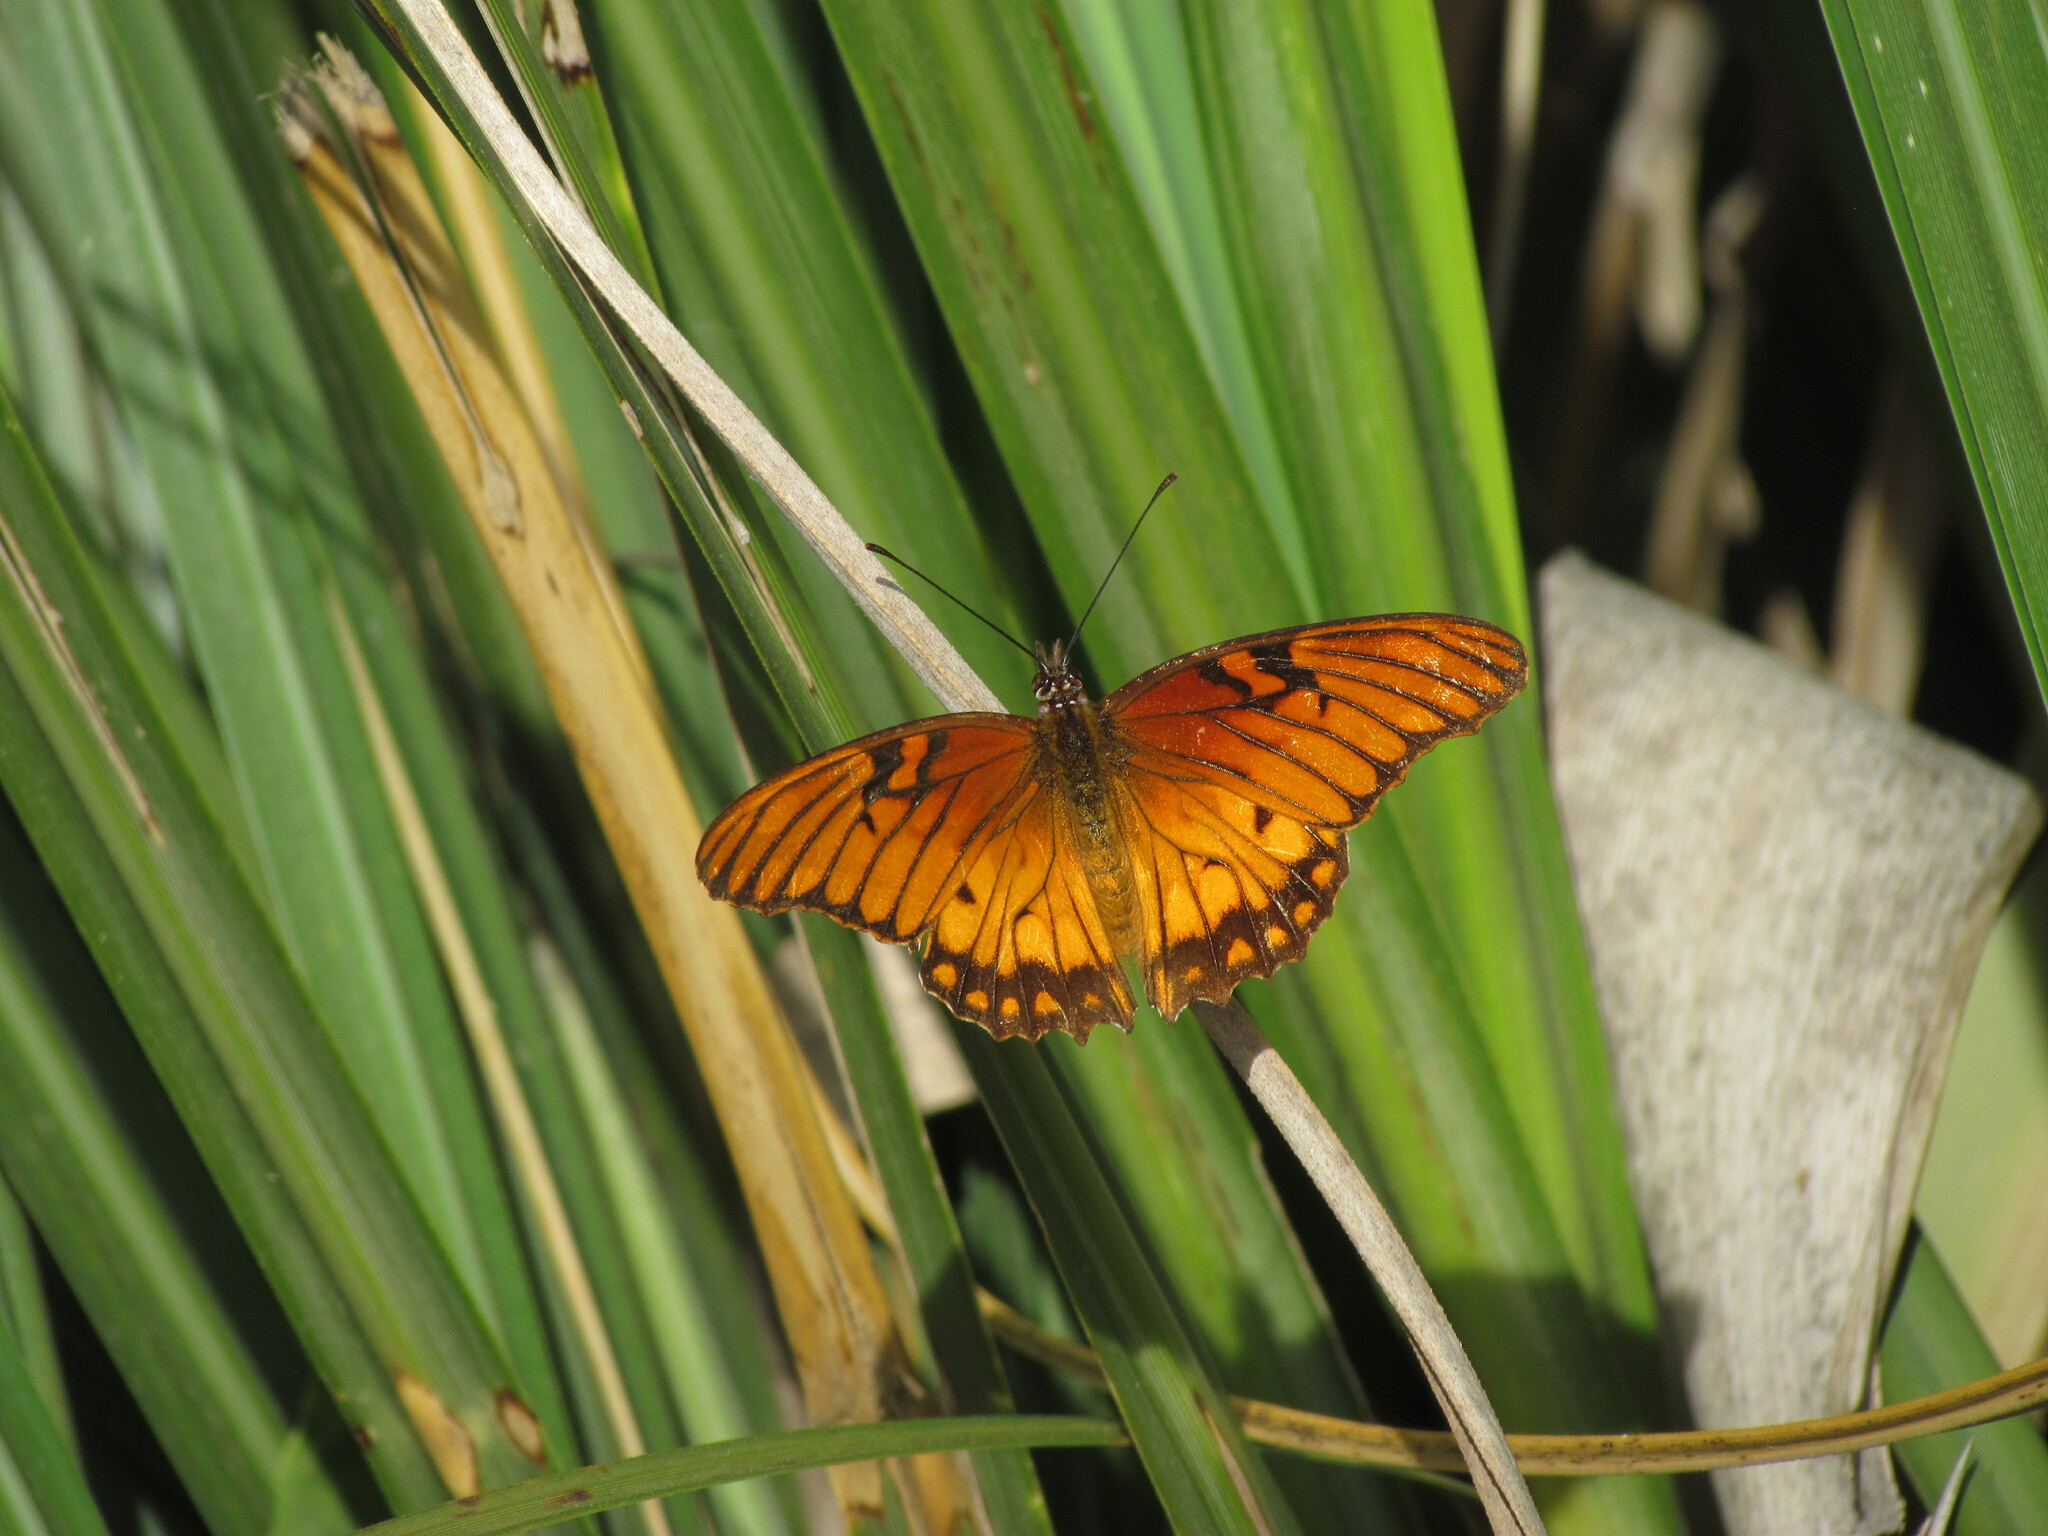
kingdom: Animalia
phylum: Arthropoda
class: Insecta
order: Lepidoptera
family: Nymphalidae
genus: Dione
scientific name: Dione moneta
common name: Mexican silverspot
